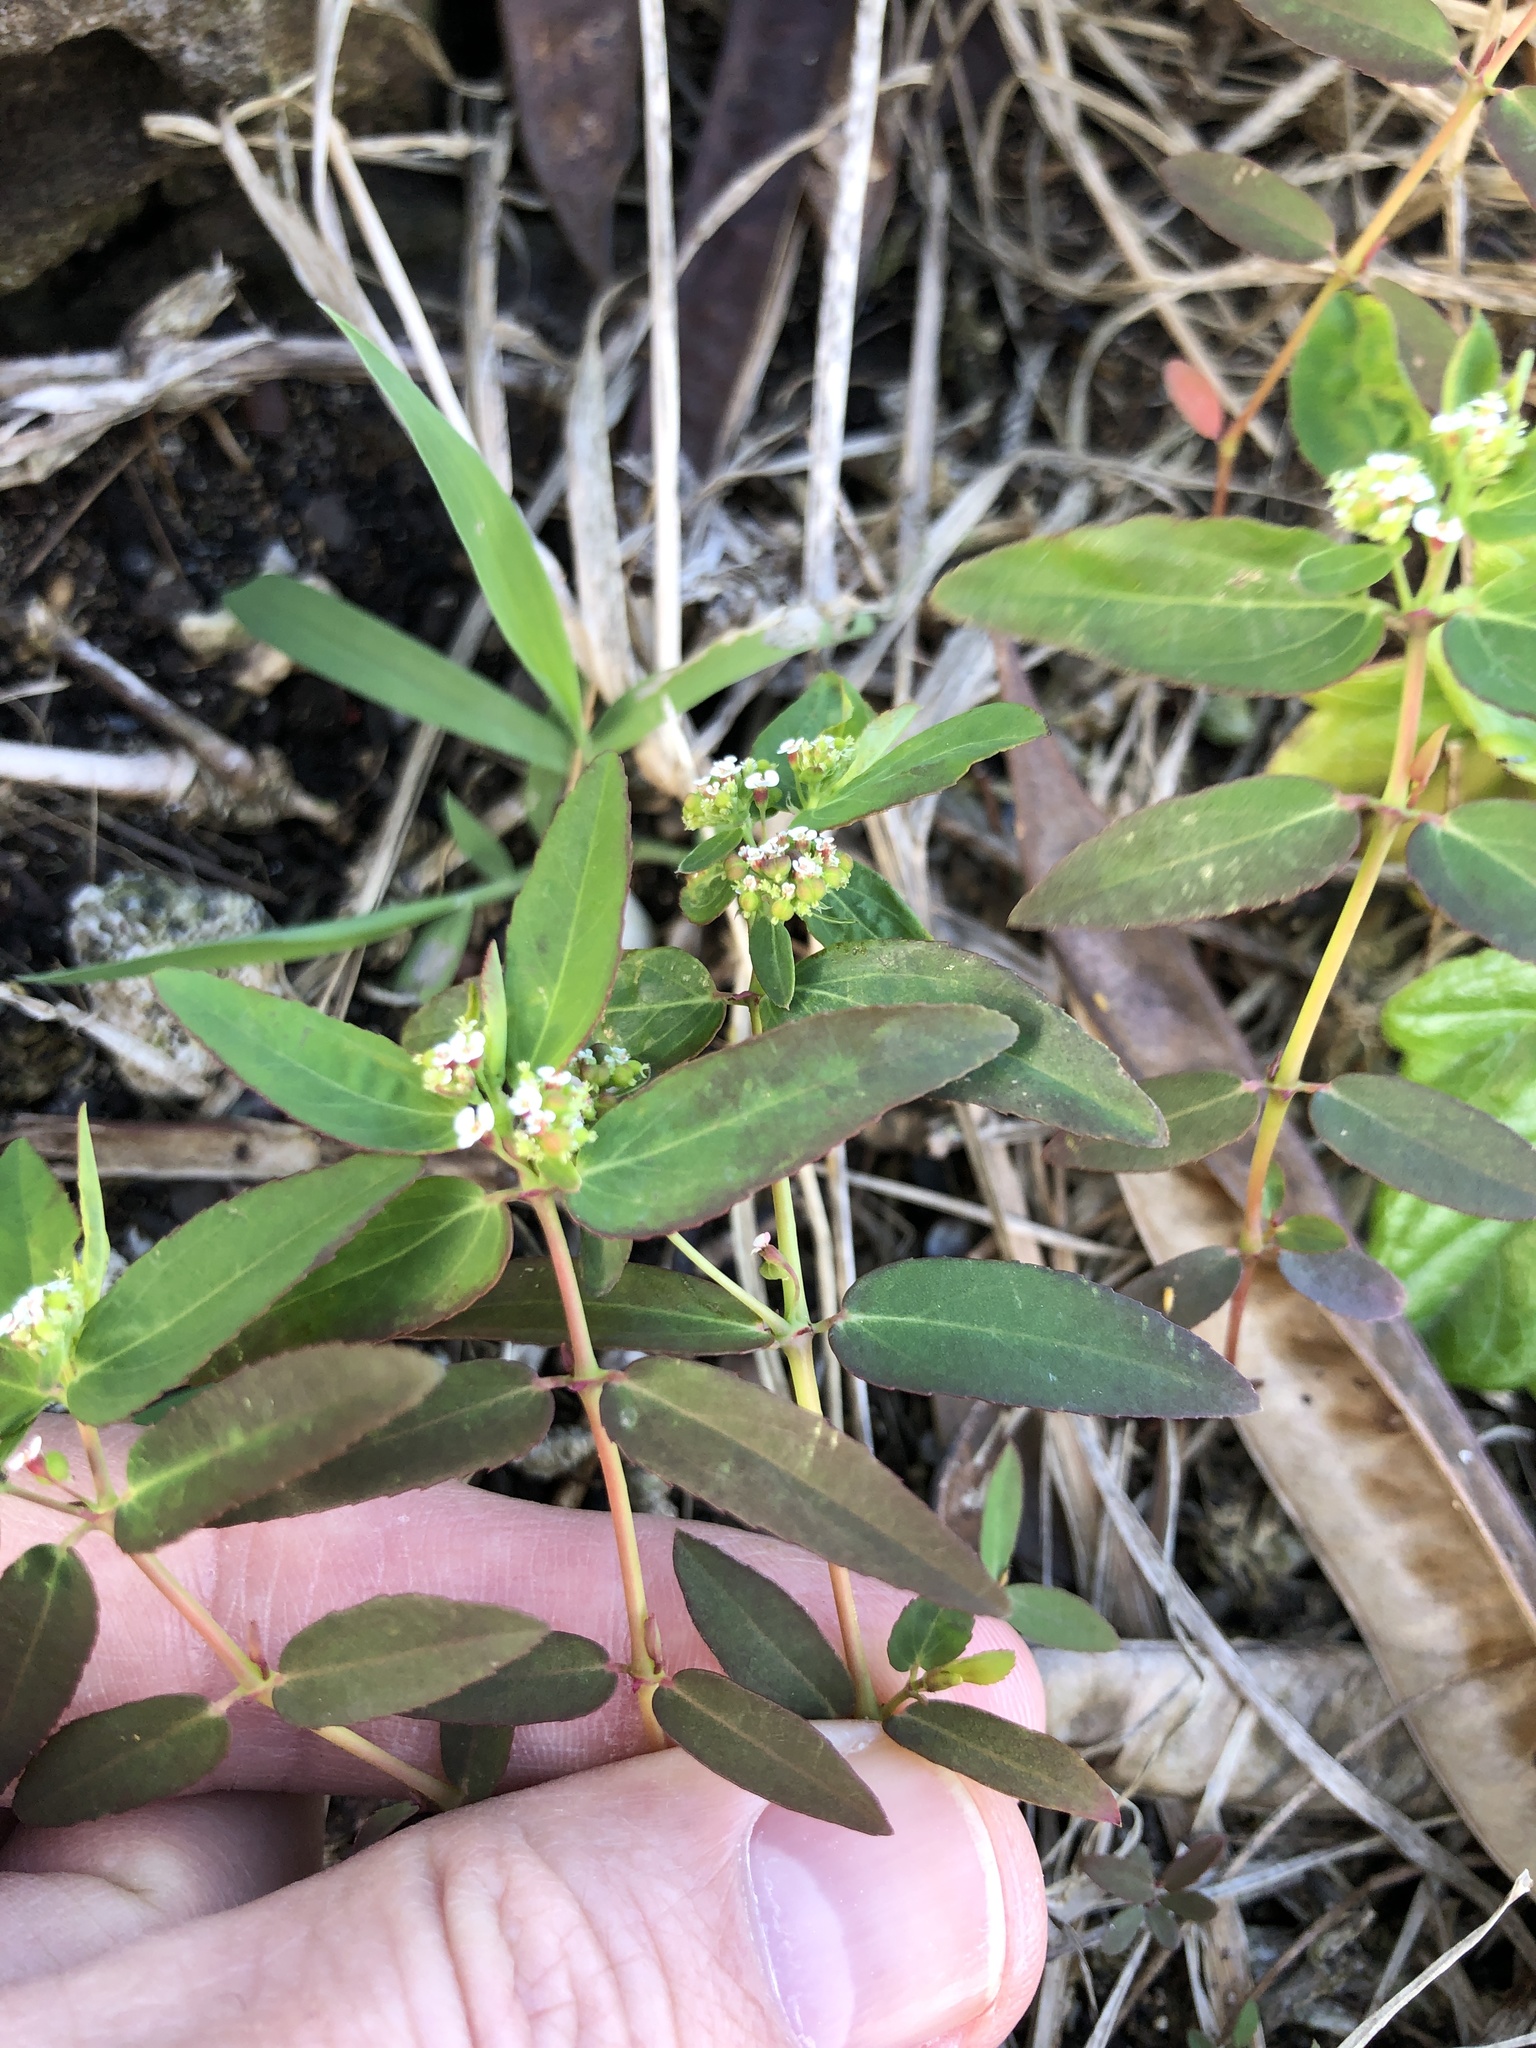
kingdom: Plantae
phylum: Tracheophyta
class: Magnoliopsida
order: Malpighiales
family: Euphorbiaceae
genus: Euphorbia
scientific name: Euphorbia hypericifolia
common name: Graceful sandmat
